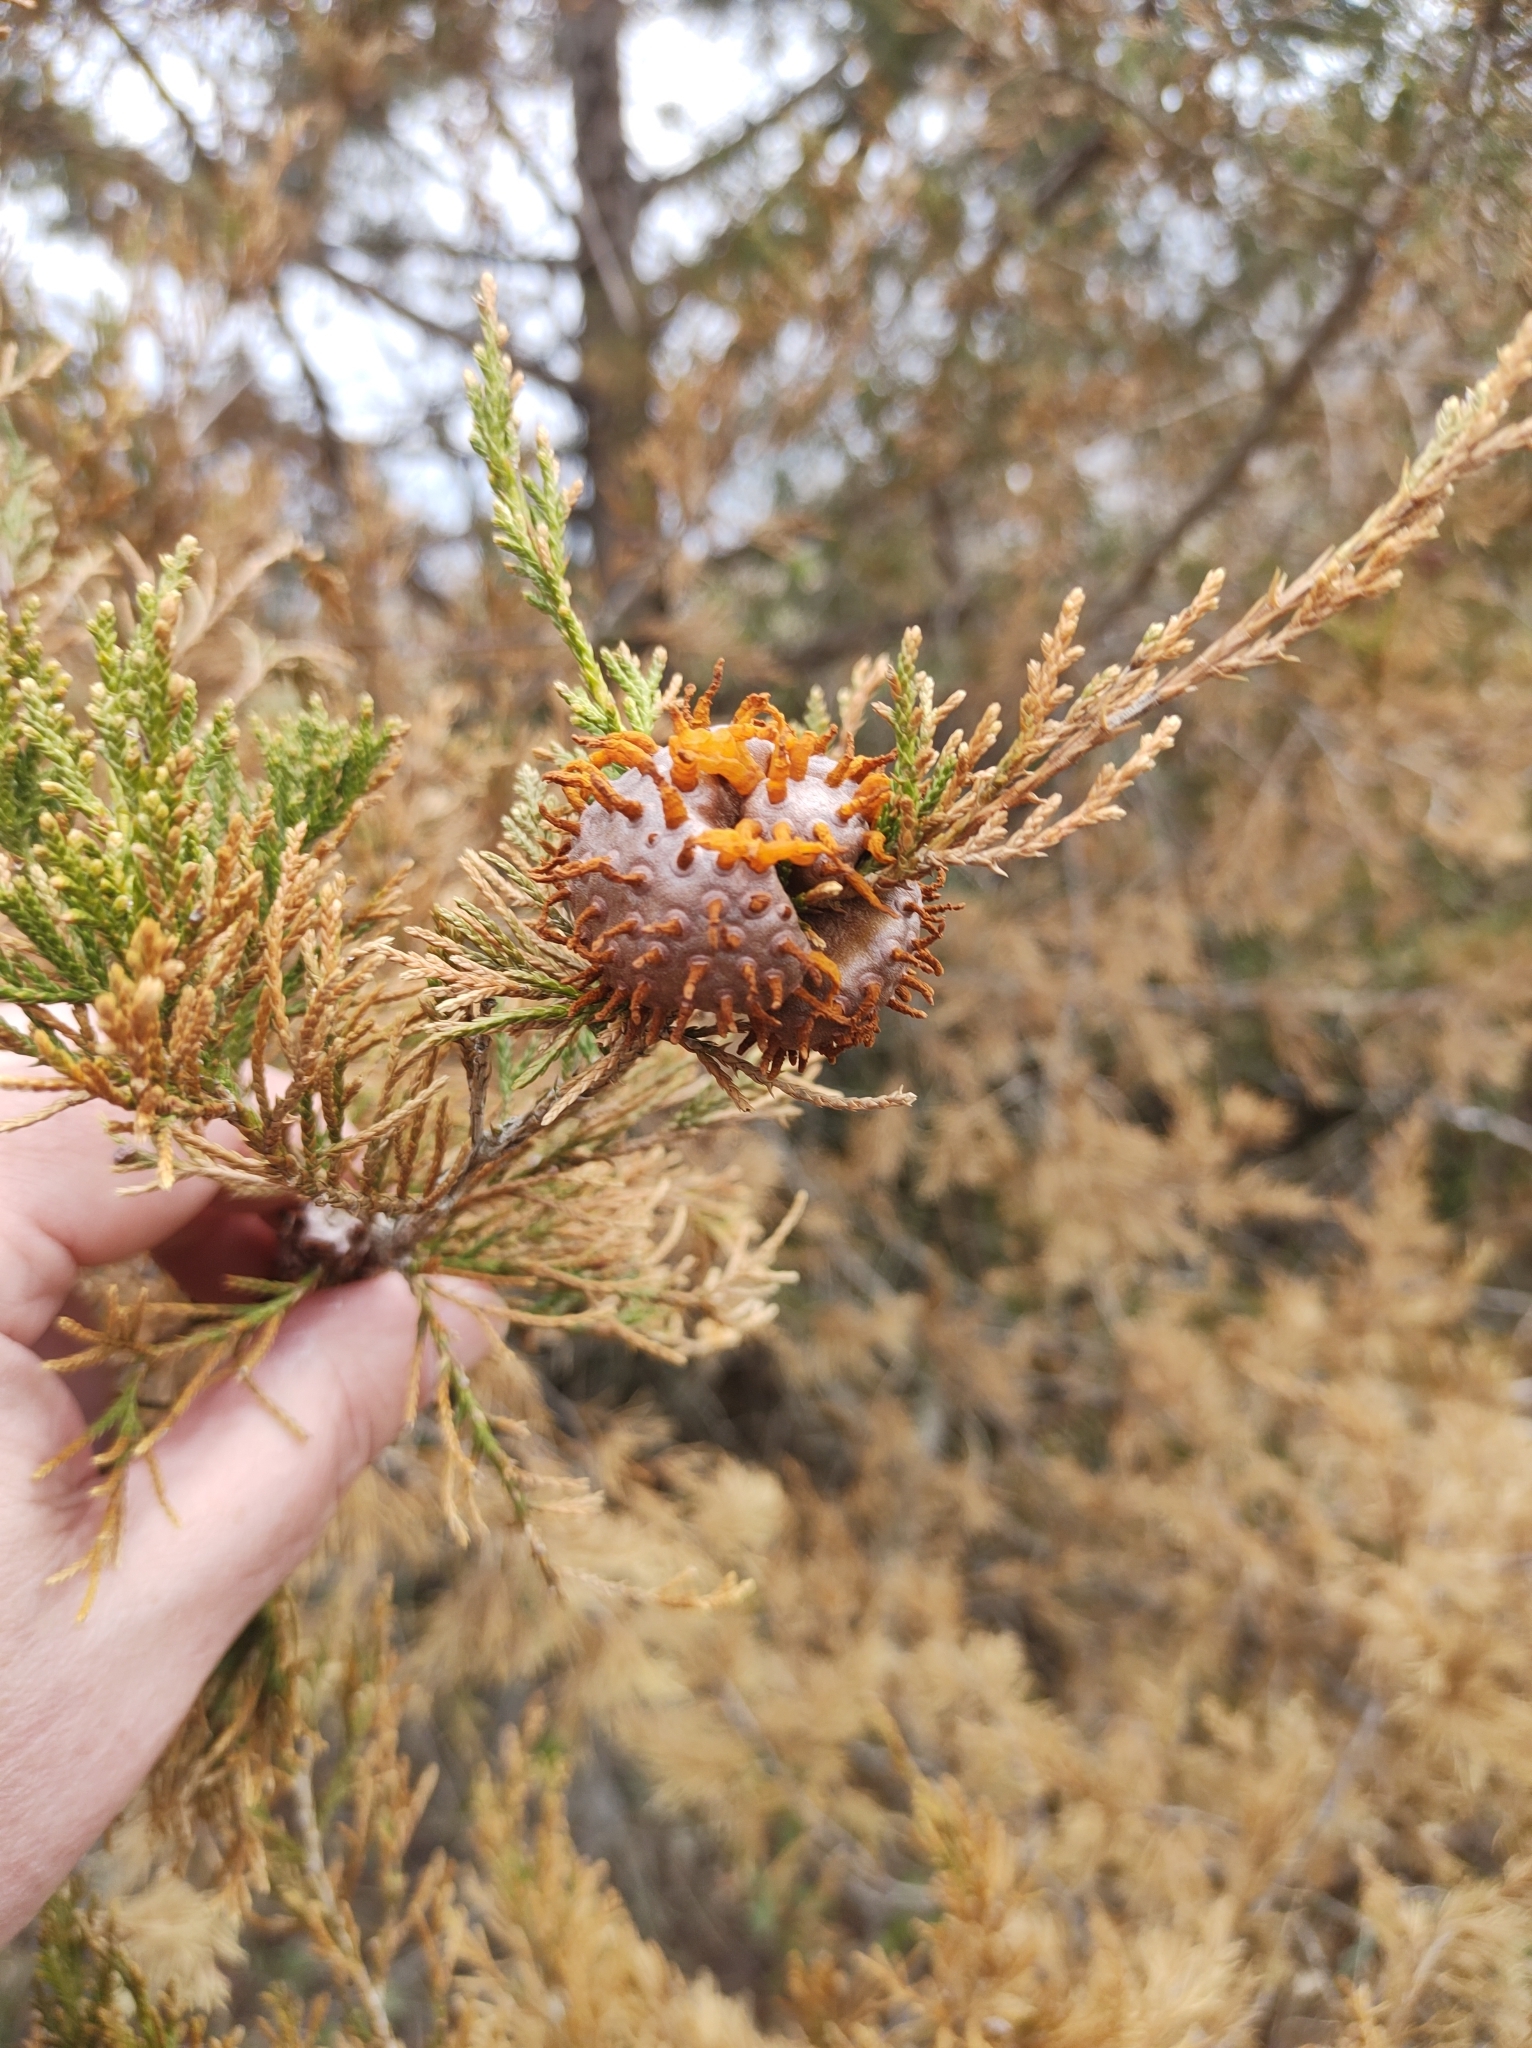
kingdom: Fungi
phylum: Basidiomycota
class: Pucciniomycetes
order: Pucciniales
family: Gymnosporangiaceae
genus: Gymnosporangium
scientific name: Gymnosporangium juniperi-virginianae
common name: Juniper-apple rust
